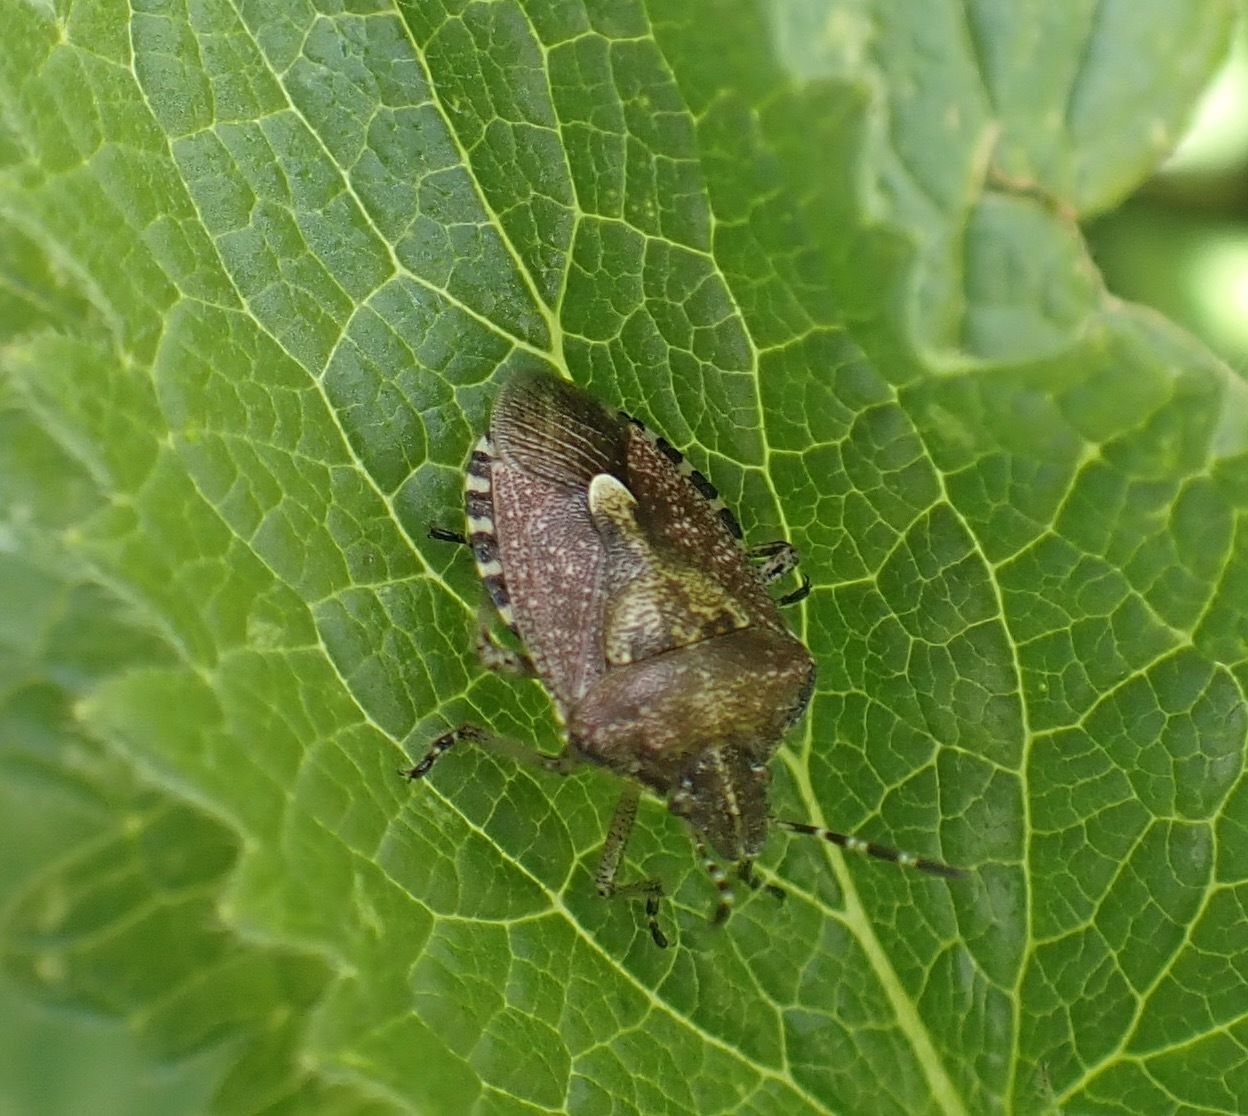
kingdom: Animalia
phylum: Arthropoda
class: Insecta
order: Hemiptera
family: Pentatomidae
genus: Dolycoris
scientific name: Dolycoris baccarum
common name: Sloe bug
